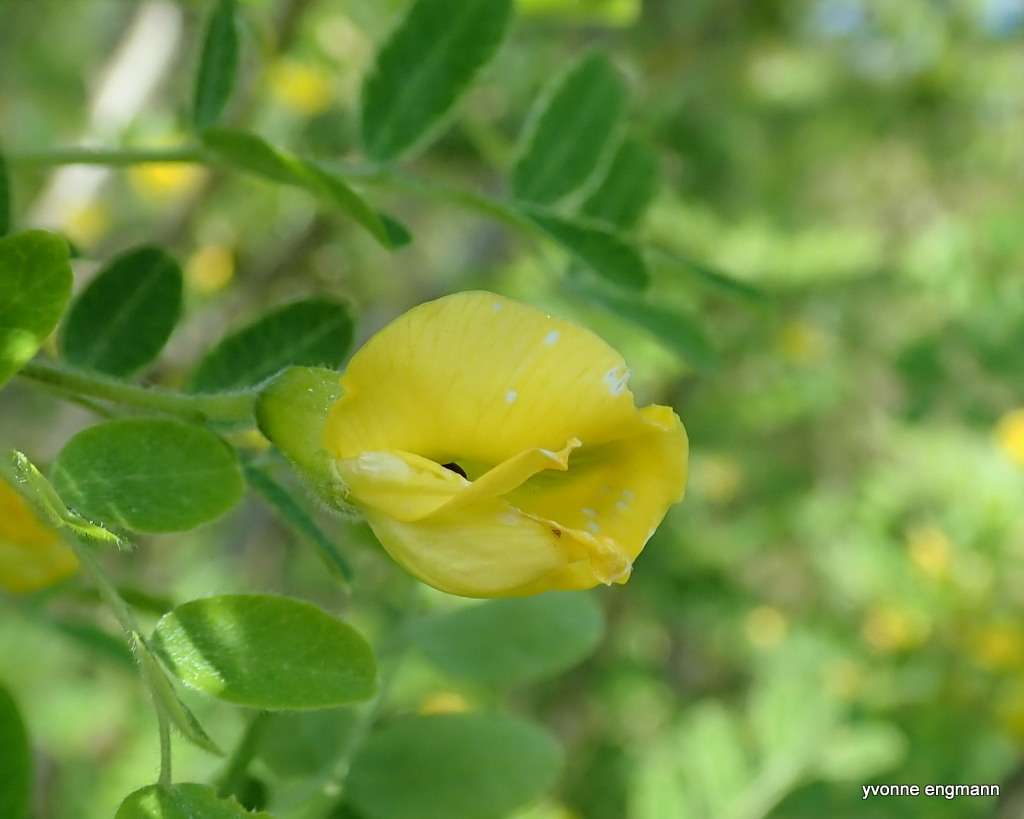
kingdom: Plantae
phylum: Tracheophyta
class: Magnoliopsida
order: Fabales
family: Fabaceae
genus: Caragana
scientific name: Caragana arborescens
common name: Siberian peashrub
